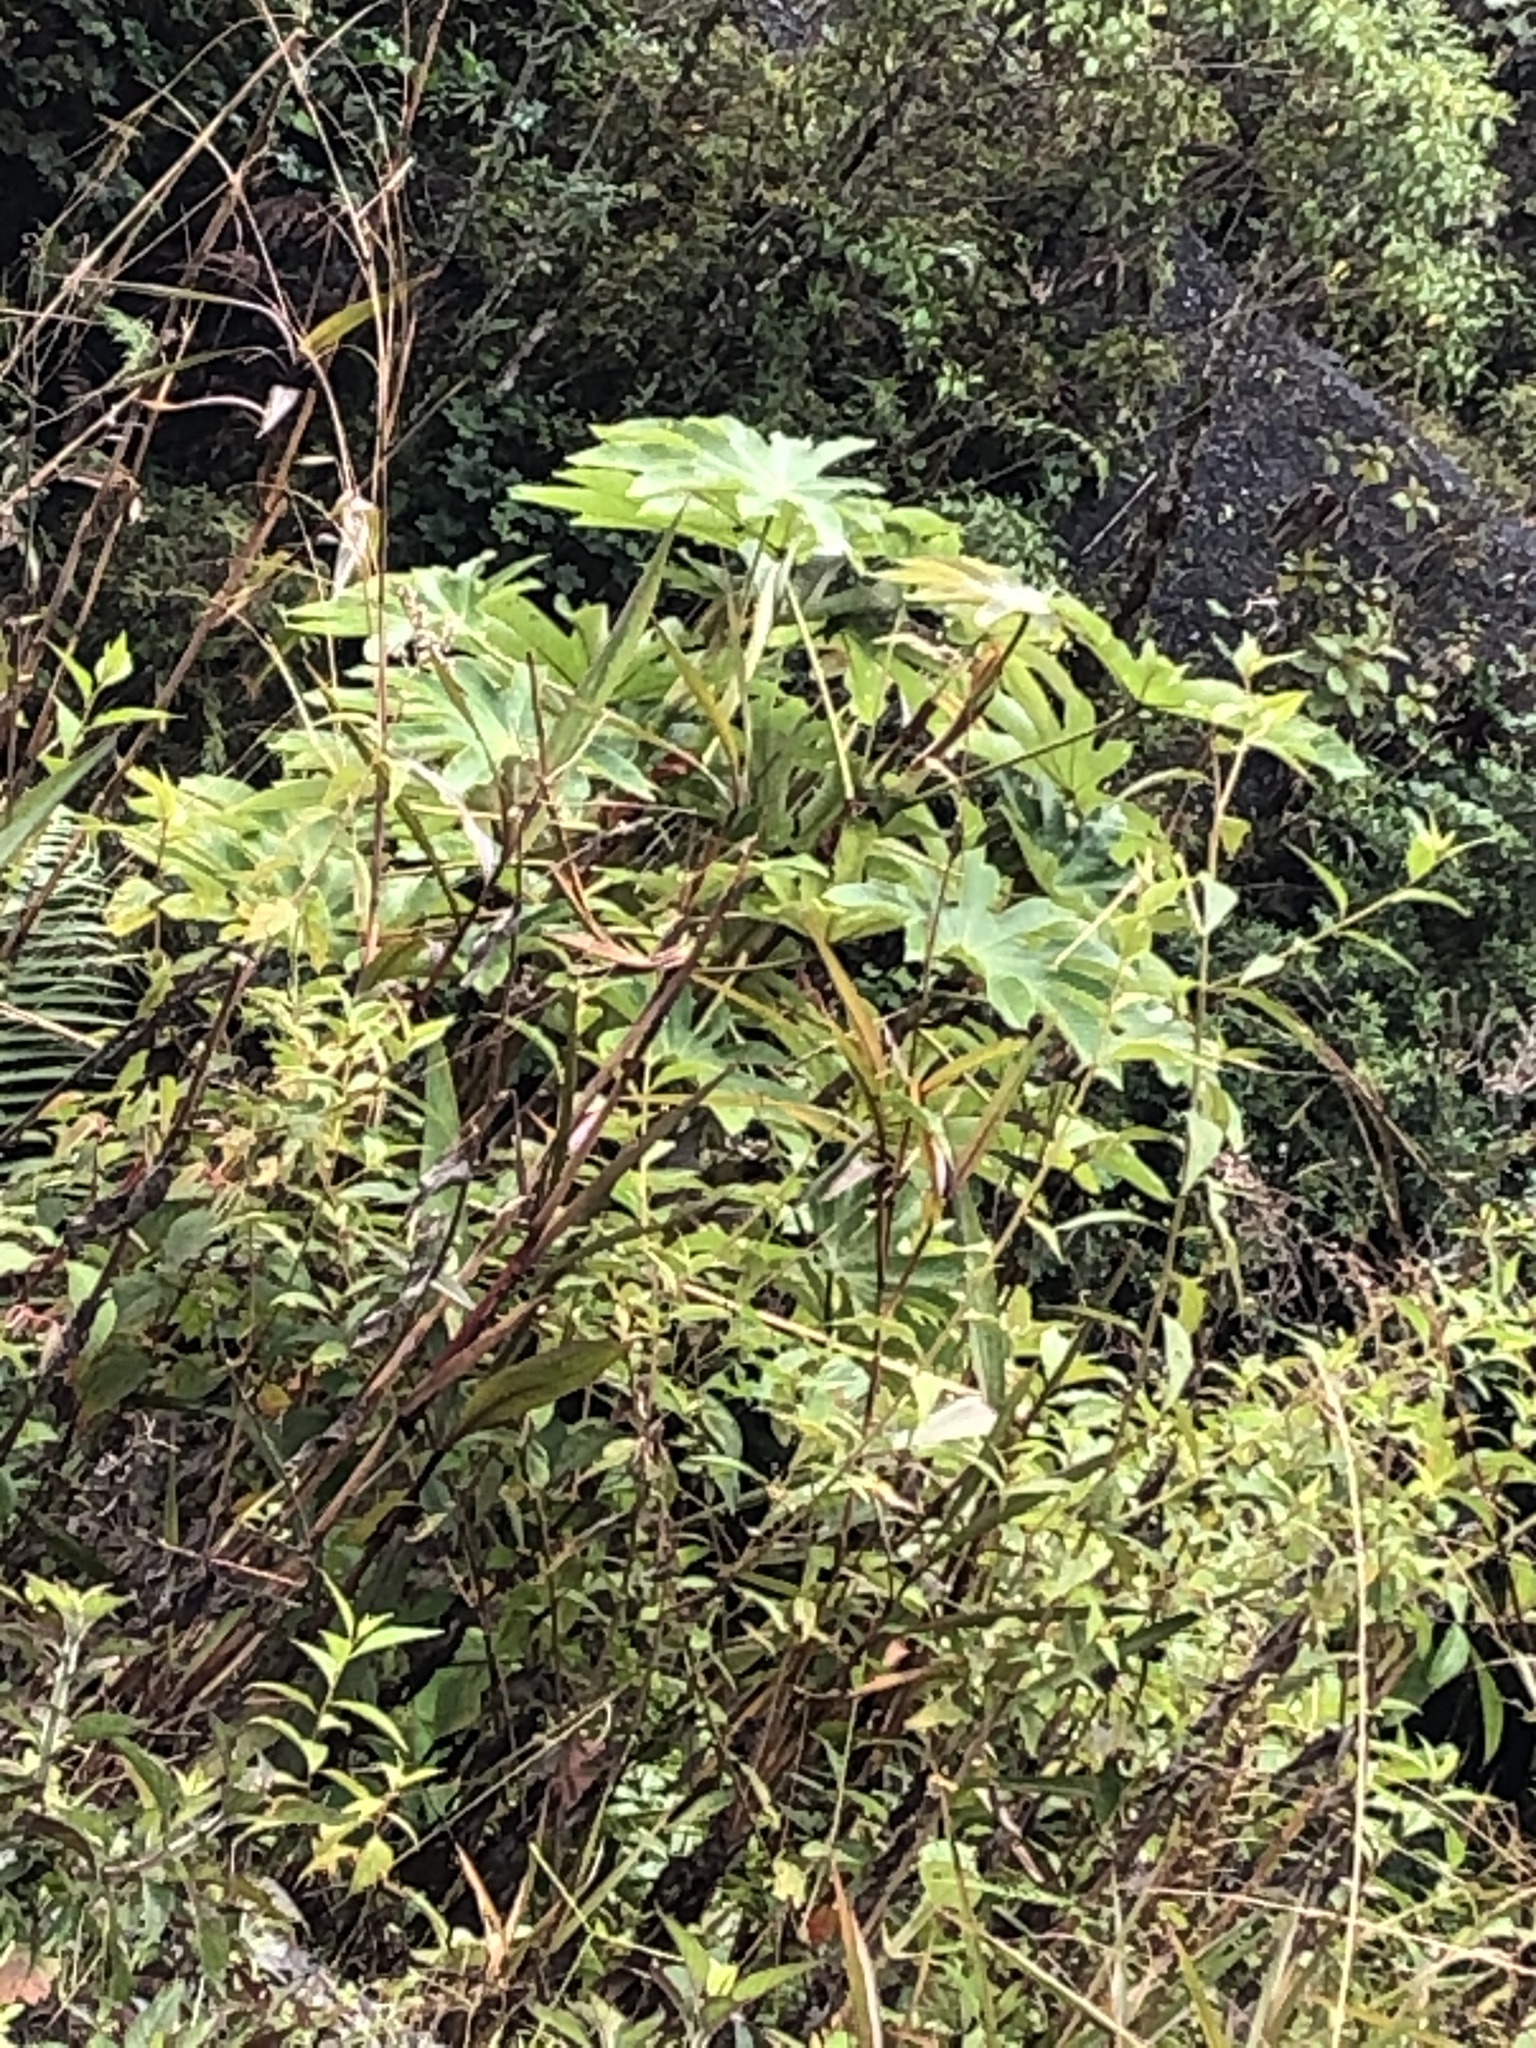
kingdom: Plantae
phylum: Tracheophyta
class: Magnoliopsida
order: Malpighiales
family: Euphorbiaceae
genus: Ricinus
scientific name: Ricinus communis
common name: Castor-oil-plant
